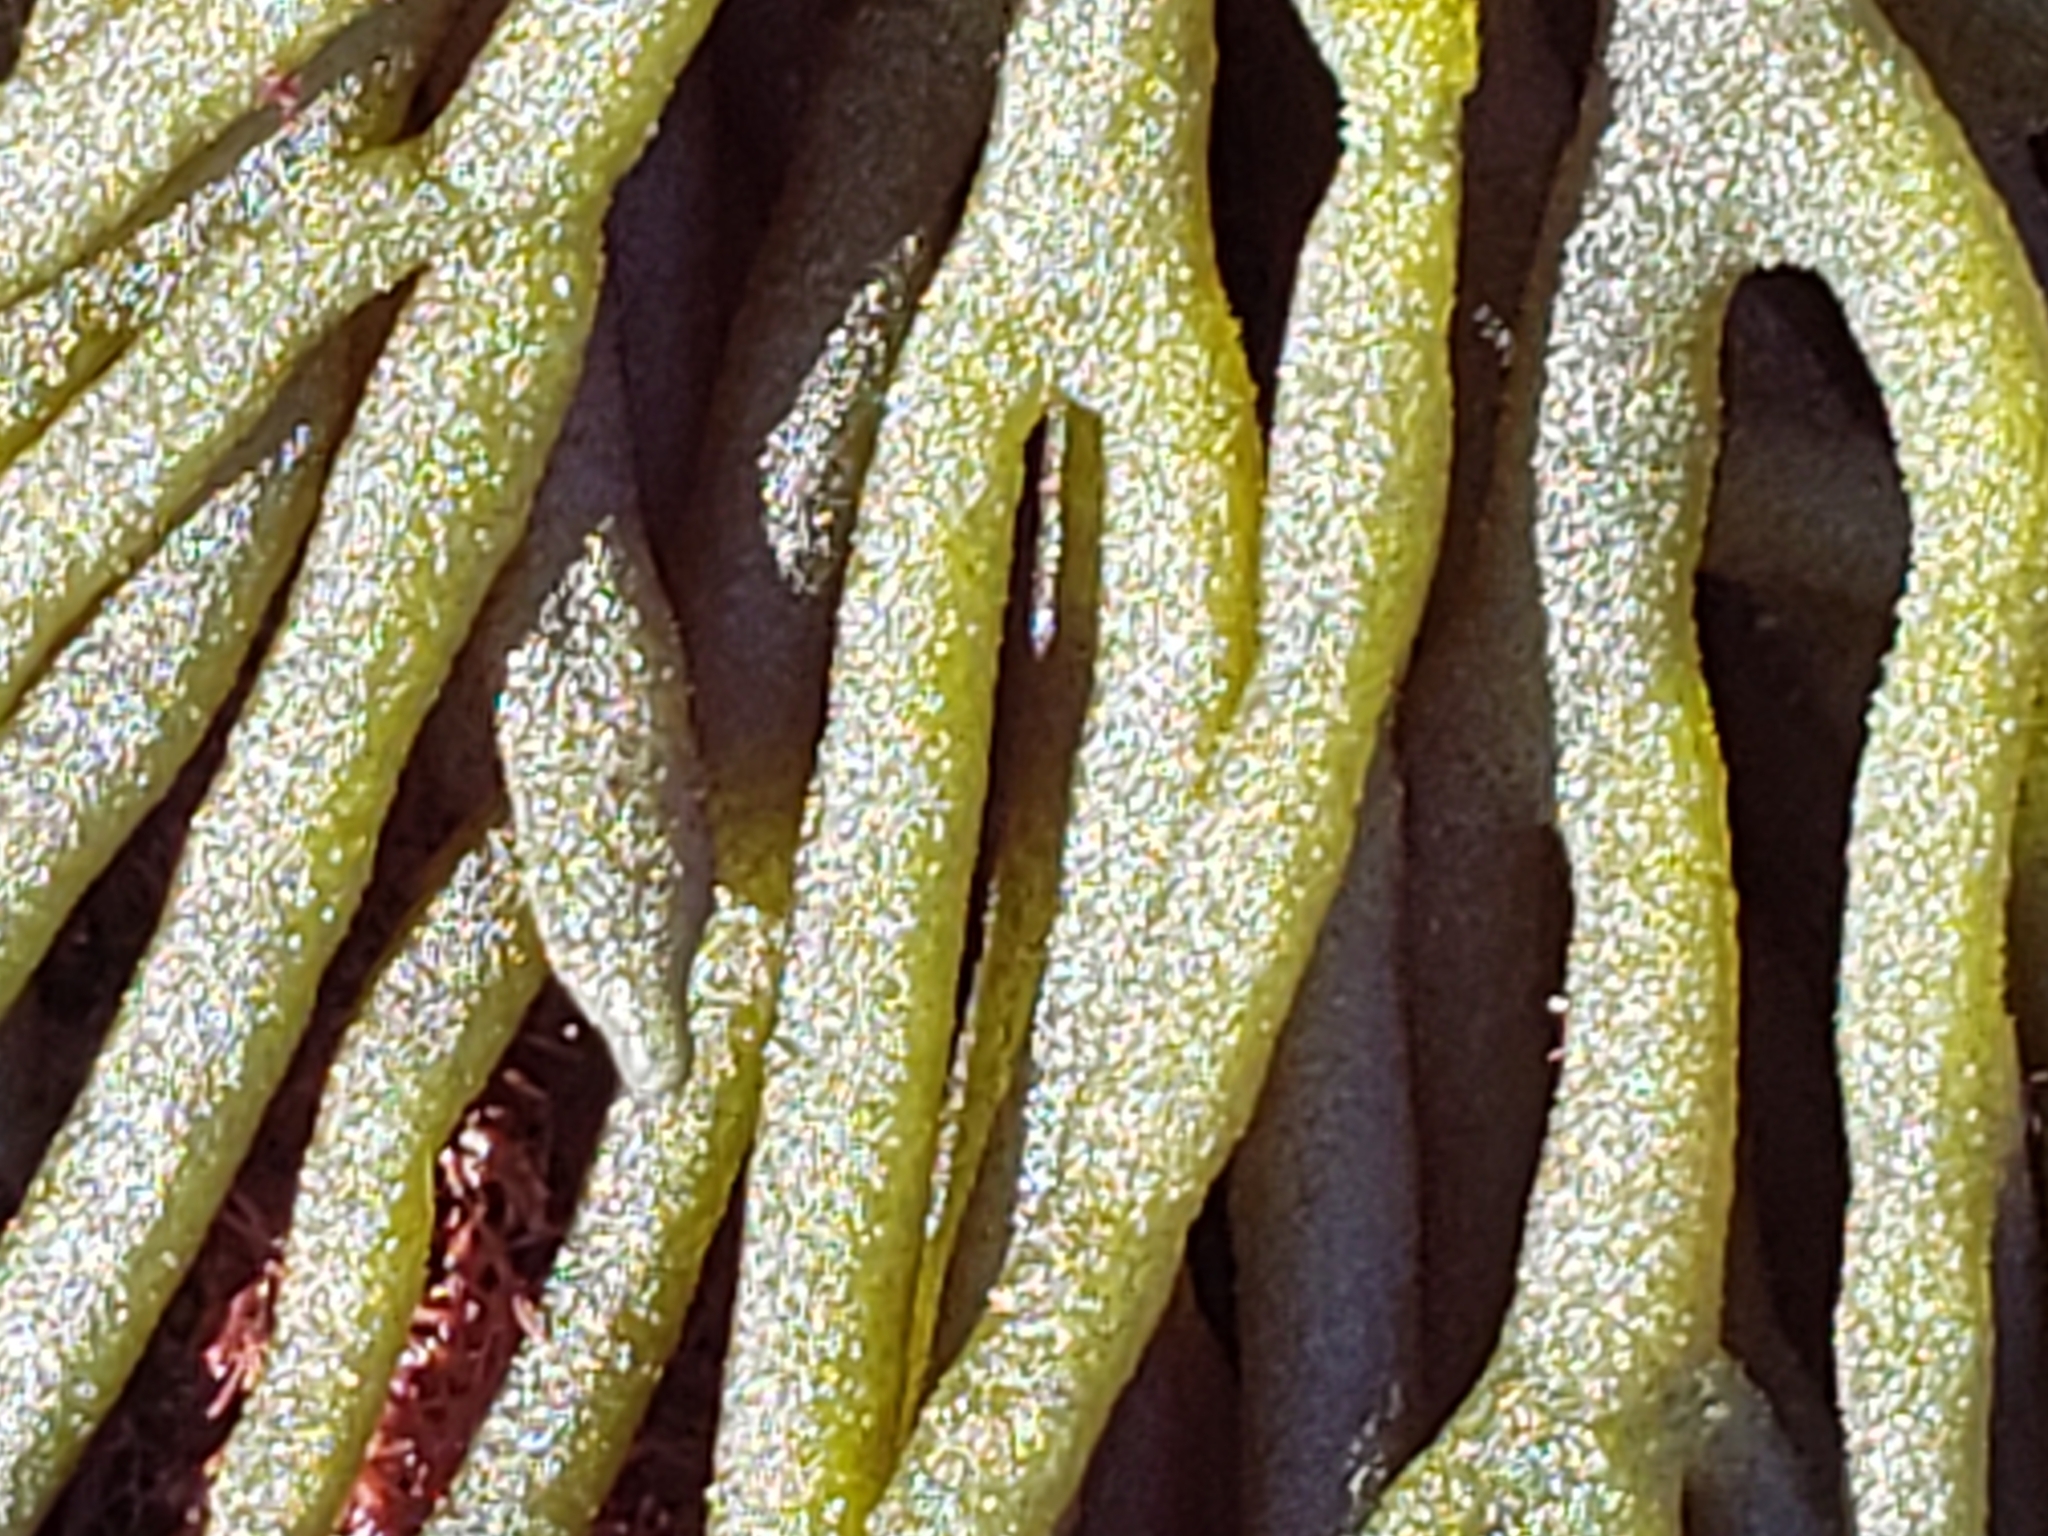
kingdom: Plantae
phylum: Chlorophyta
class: Ulvophyceae
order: Bryopsidales
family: Codiaceae
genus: Codium
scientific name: Codium fragile
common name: Dead man's fingers
